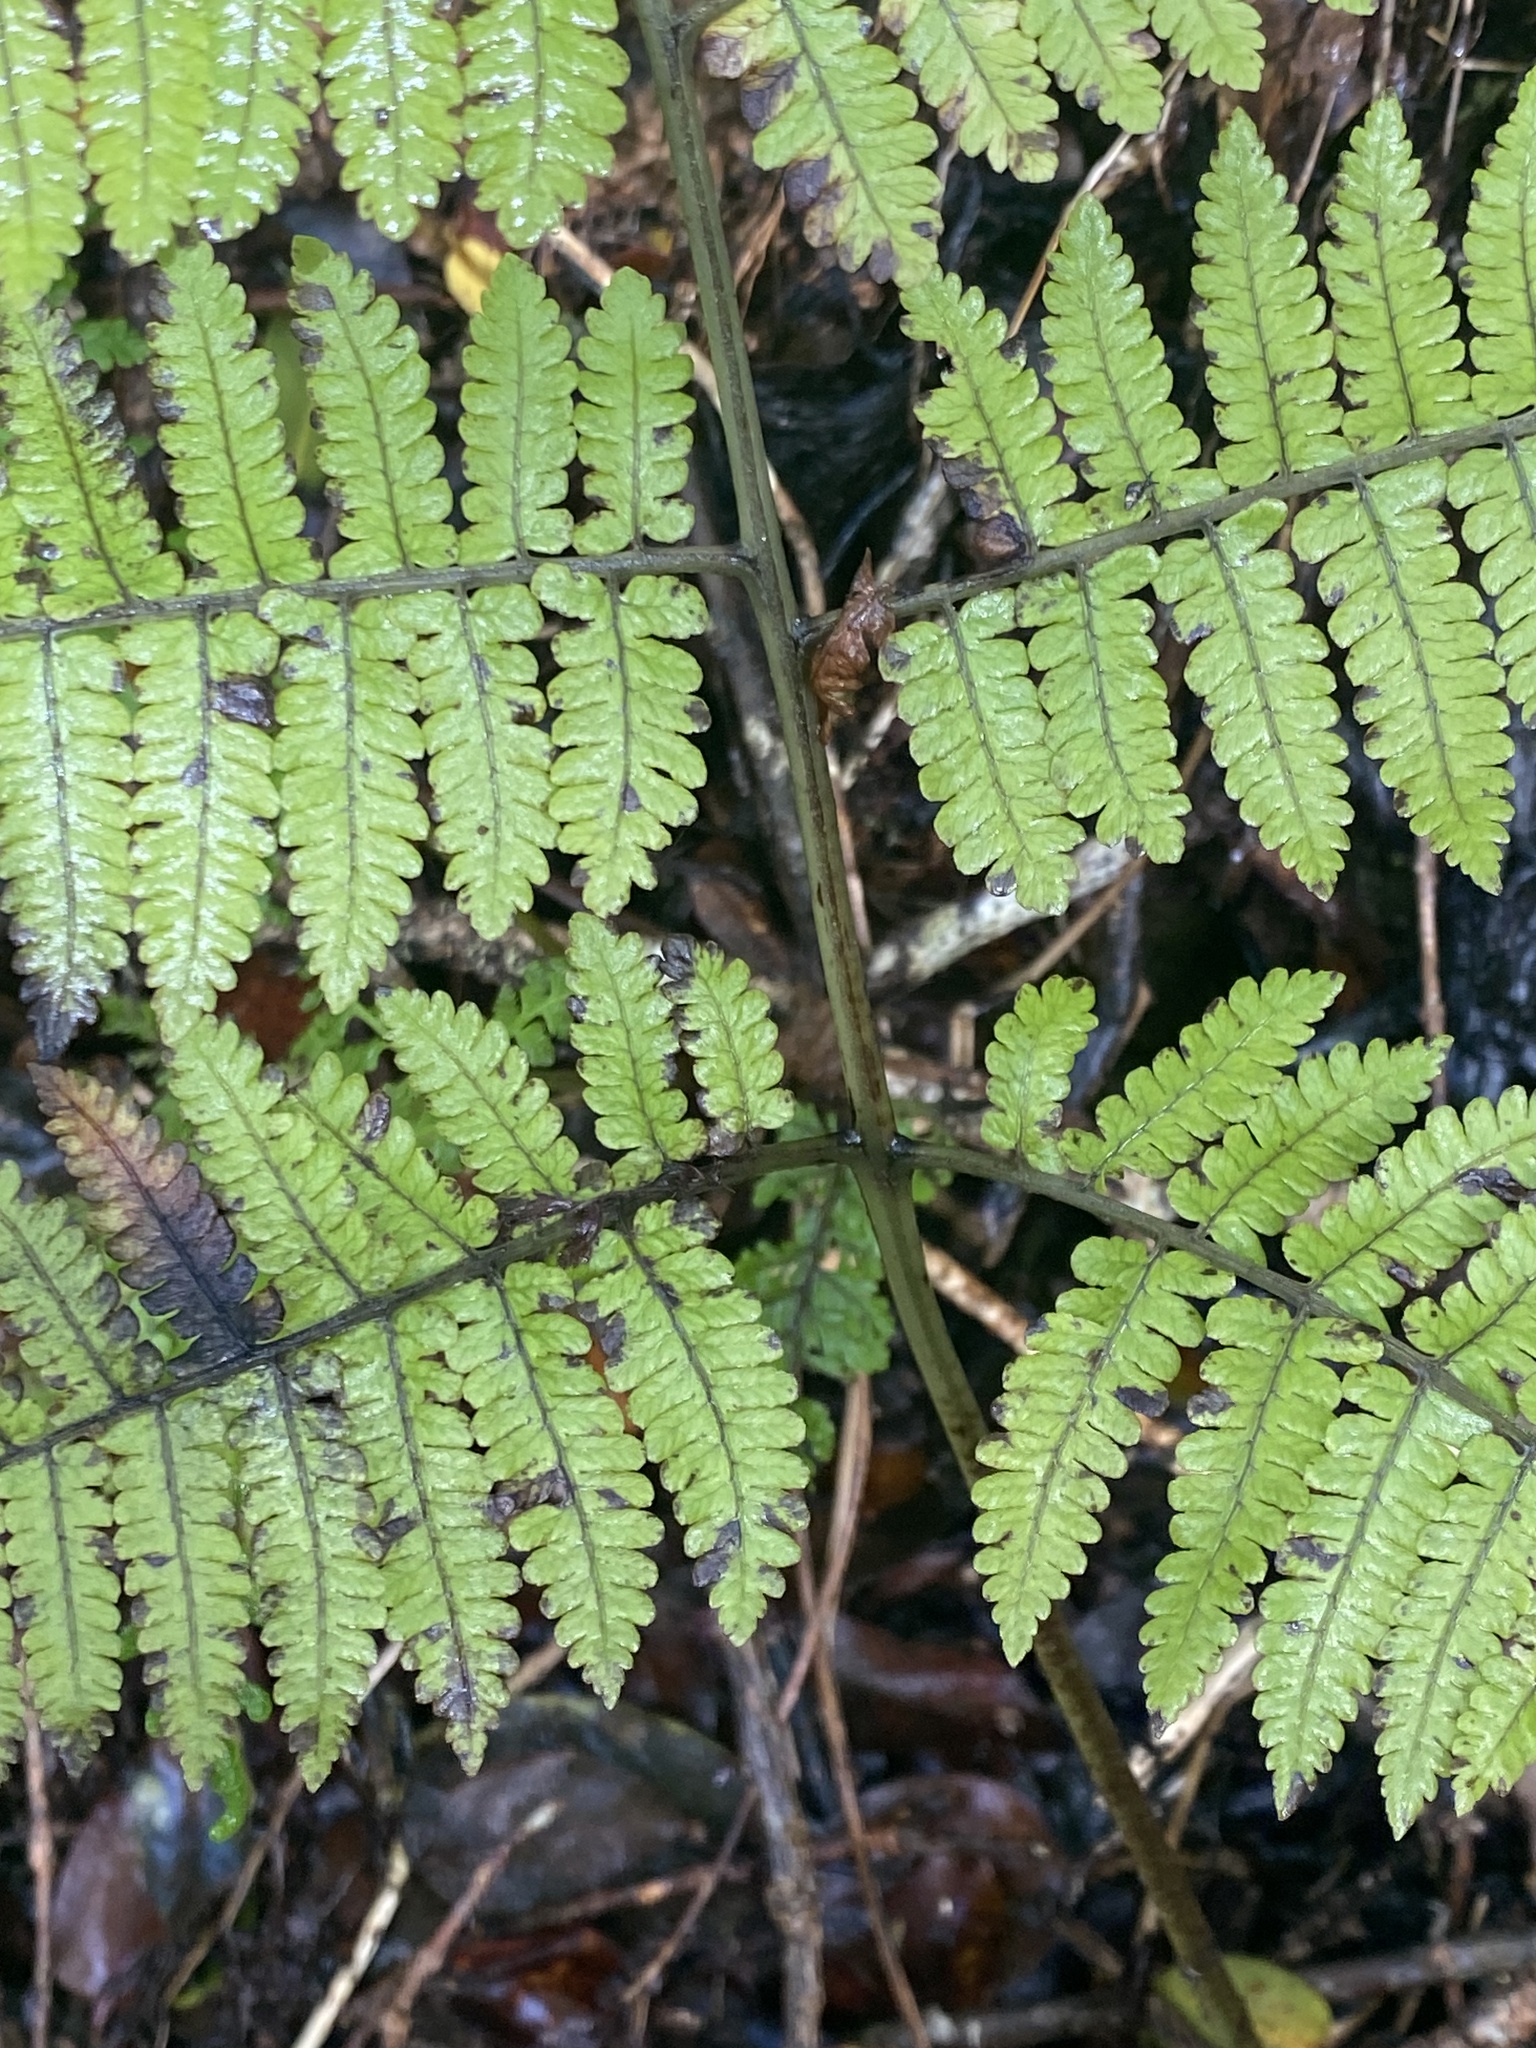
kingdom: Plantae
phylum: Tracheophyta
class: Polypodiopsida
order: Polypodiales
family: Athyriaceae
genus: Diplazium
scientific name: Diplazium sandwichianum
